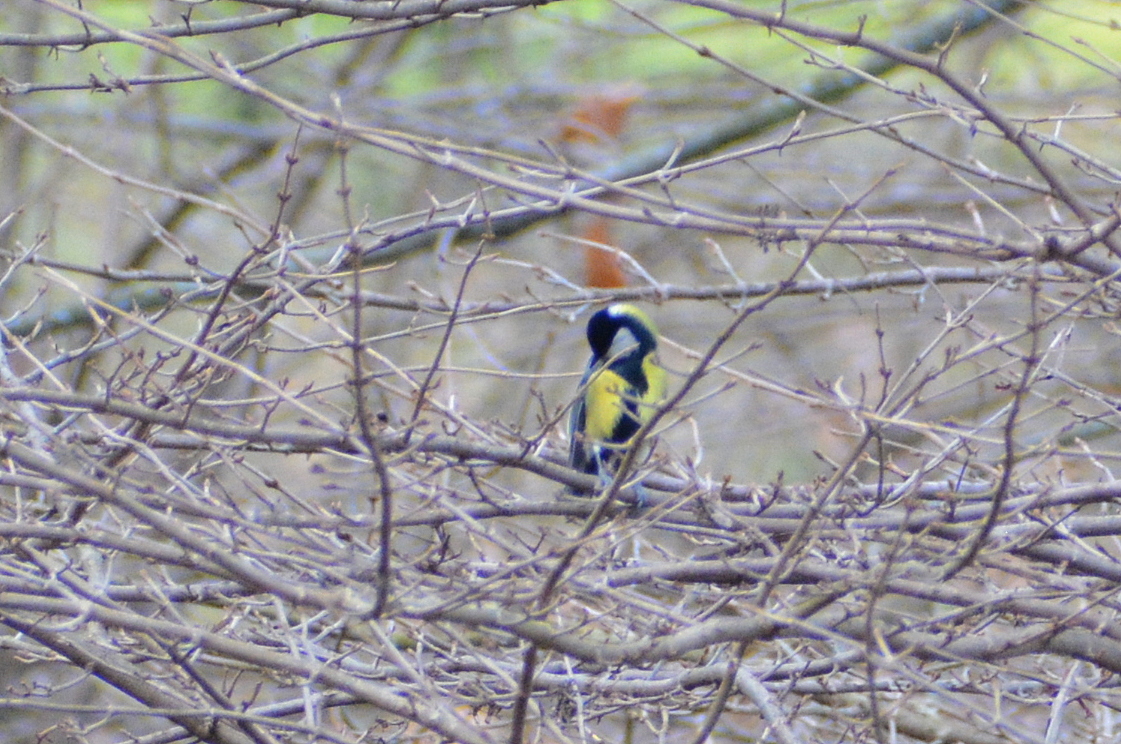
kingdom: Animalia
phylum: Chordata
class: Aves
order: Passeriformes
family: Paridae
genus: Parus
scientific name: Parus major
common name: Great tit
